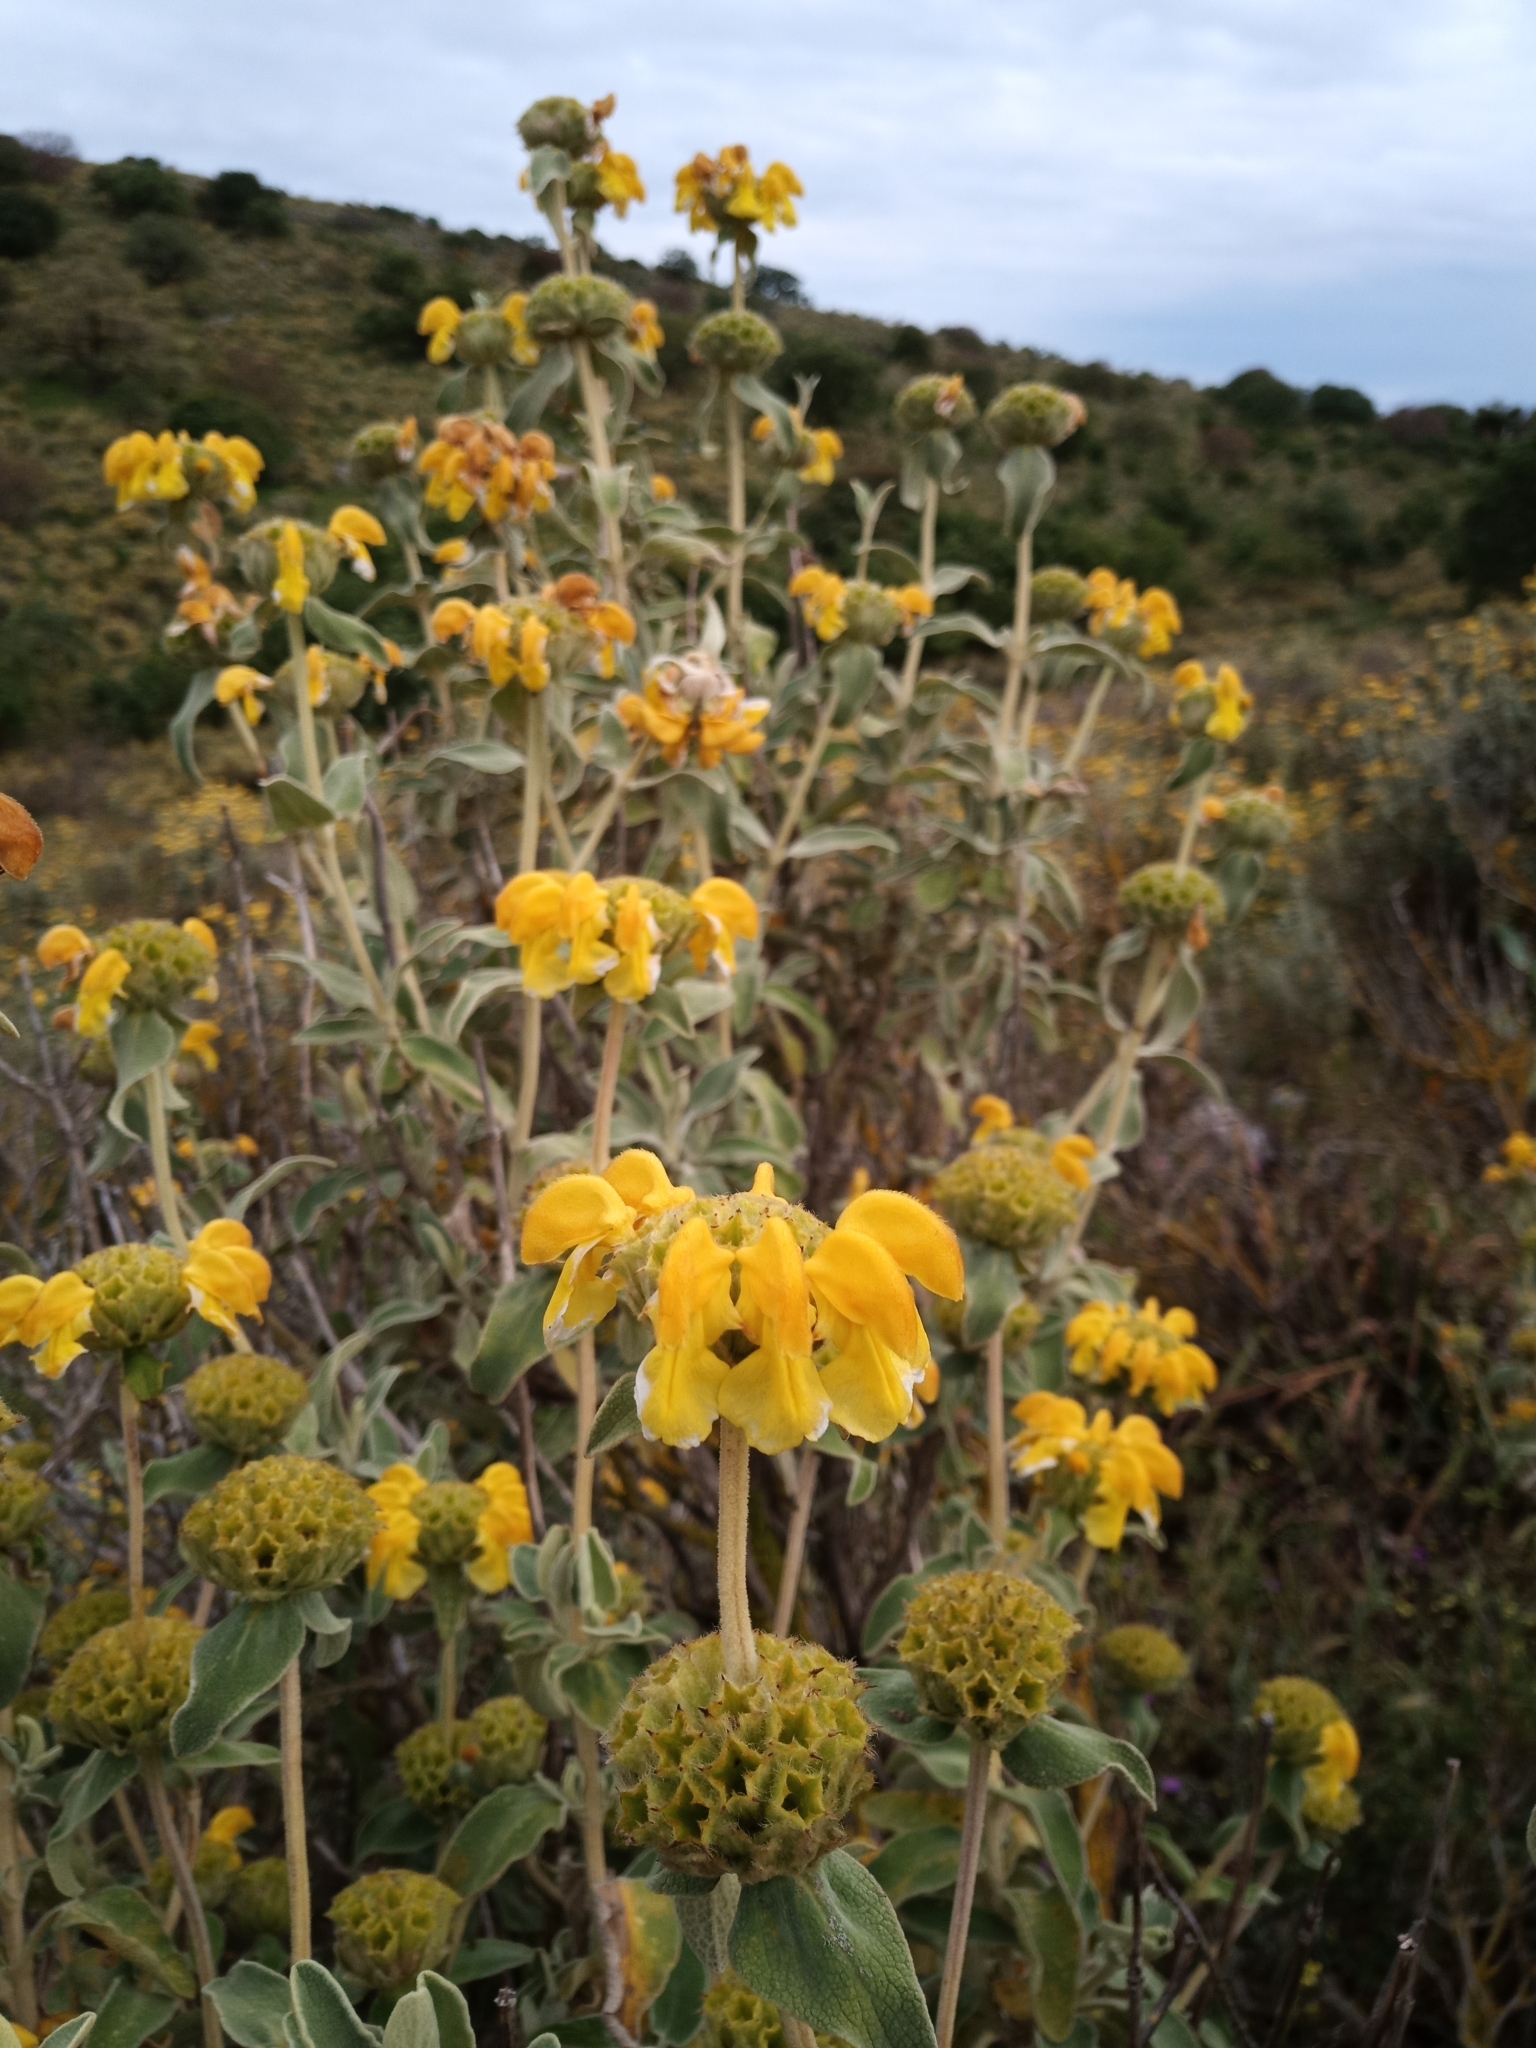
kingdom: Plantae
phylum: Tracheophyta
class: Magnoliopsida
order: Lamiales
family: Lamiaceae
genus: Phlomis
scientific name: Phlomis fruticosa
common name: Jerusalem sage
